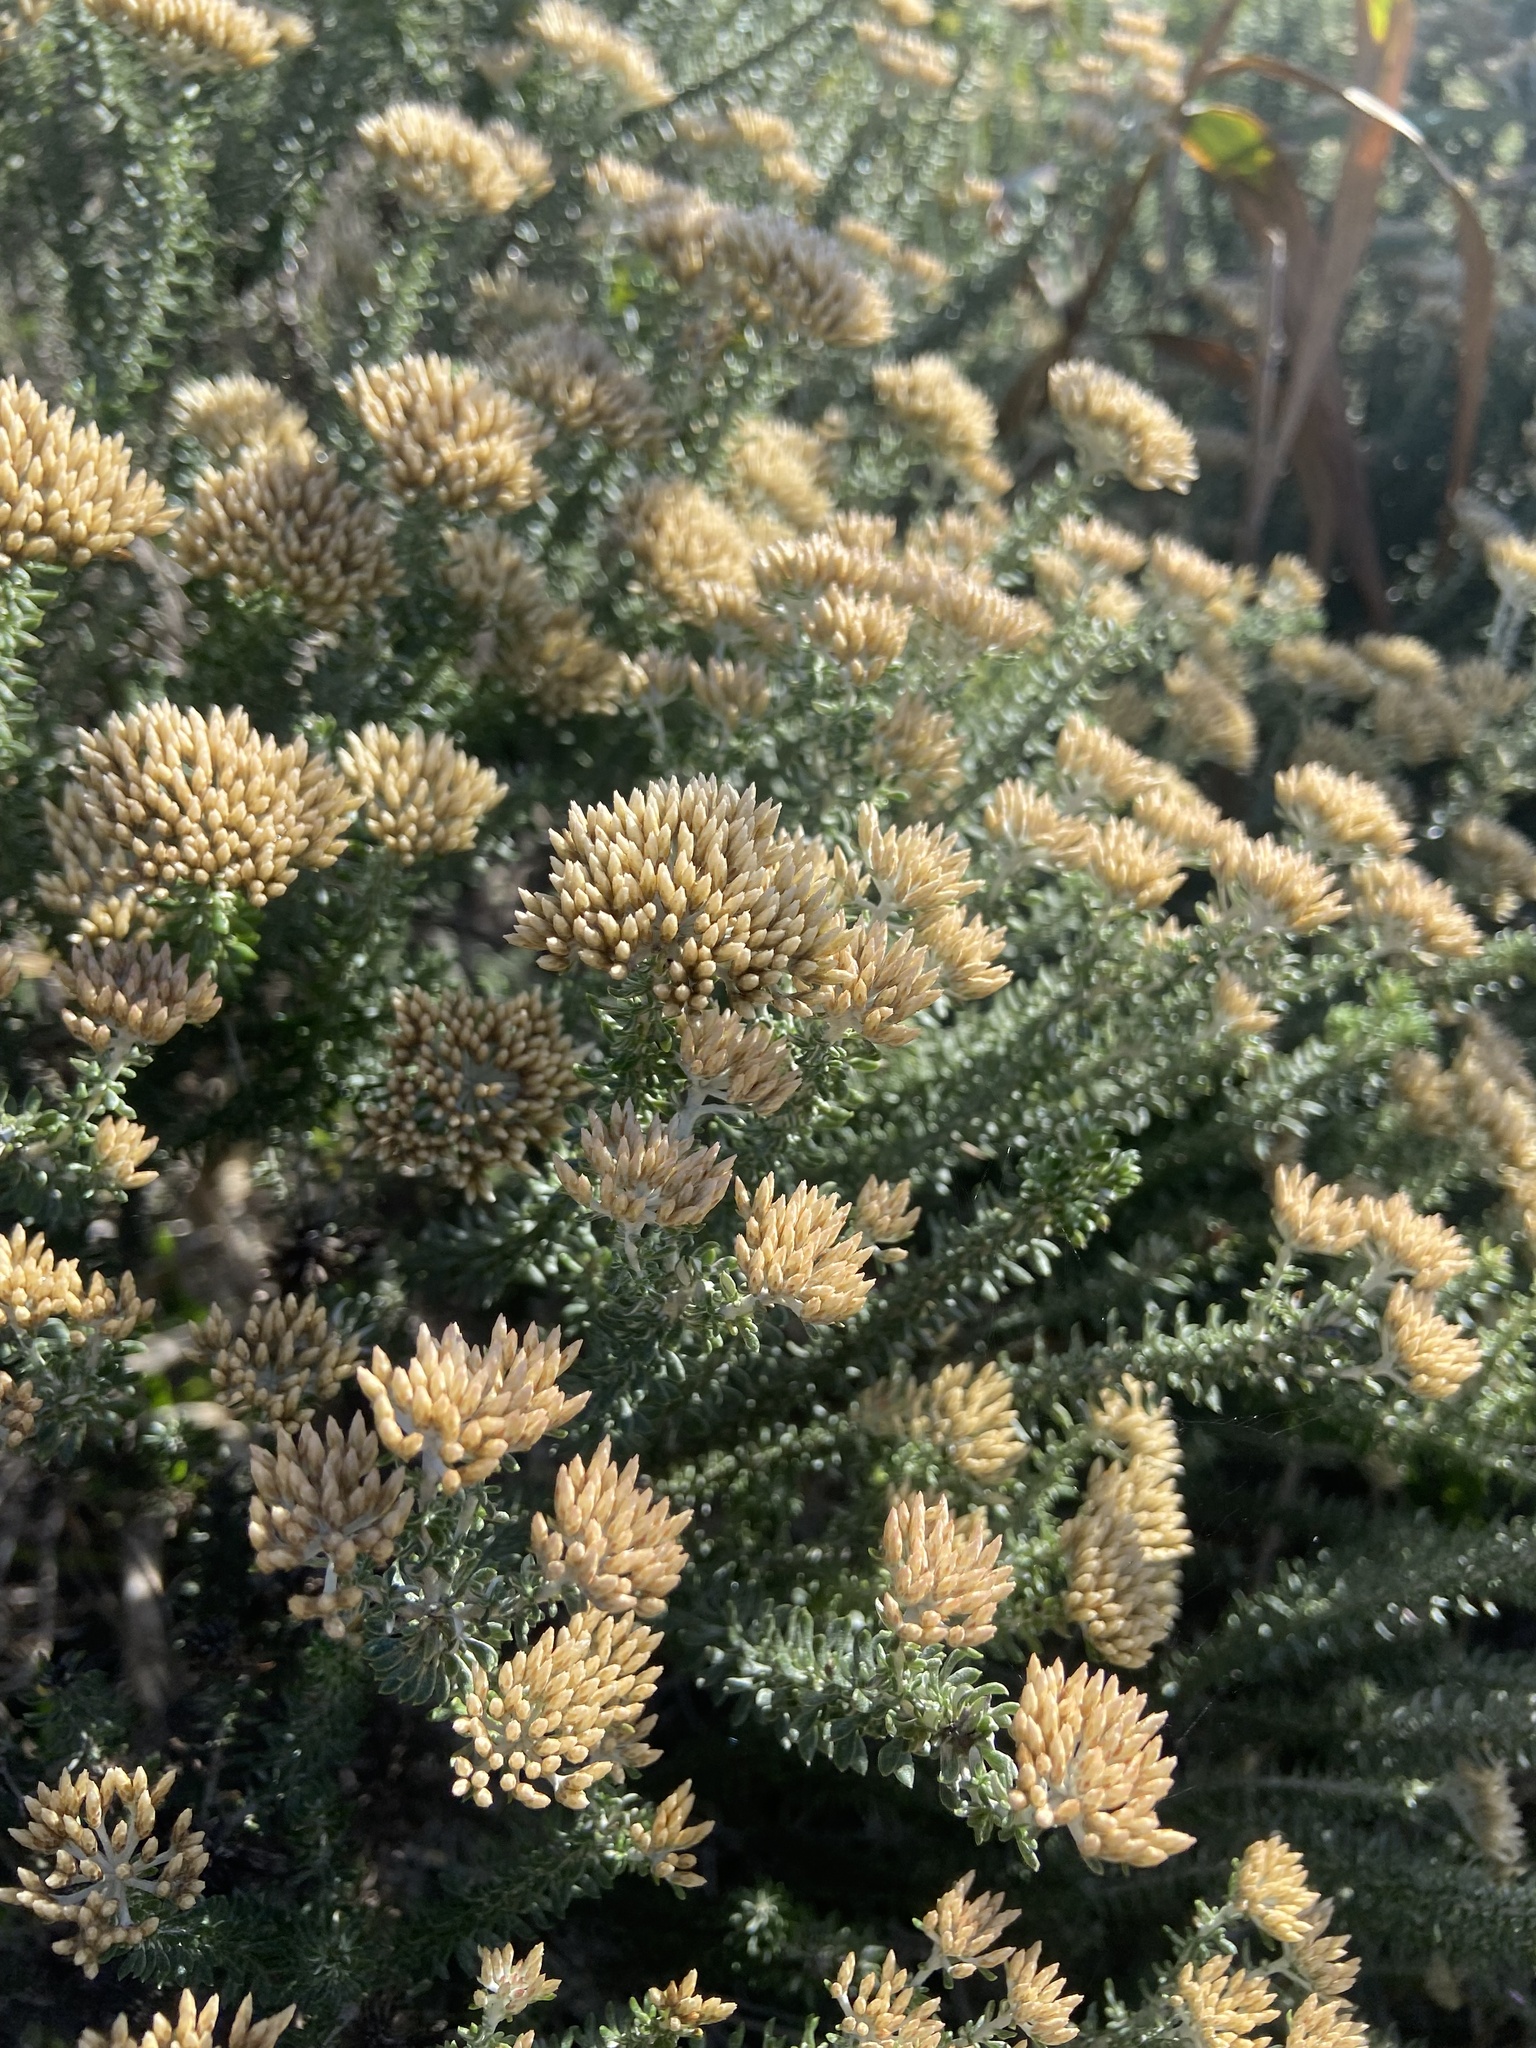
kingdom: Plantae
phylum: Tracheophyta
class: Magnoliopsida
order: Asterales
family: Asteraceae
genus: Metalasia
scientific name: Metalasia muricata
